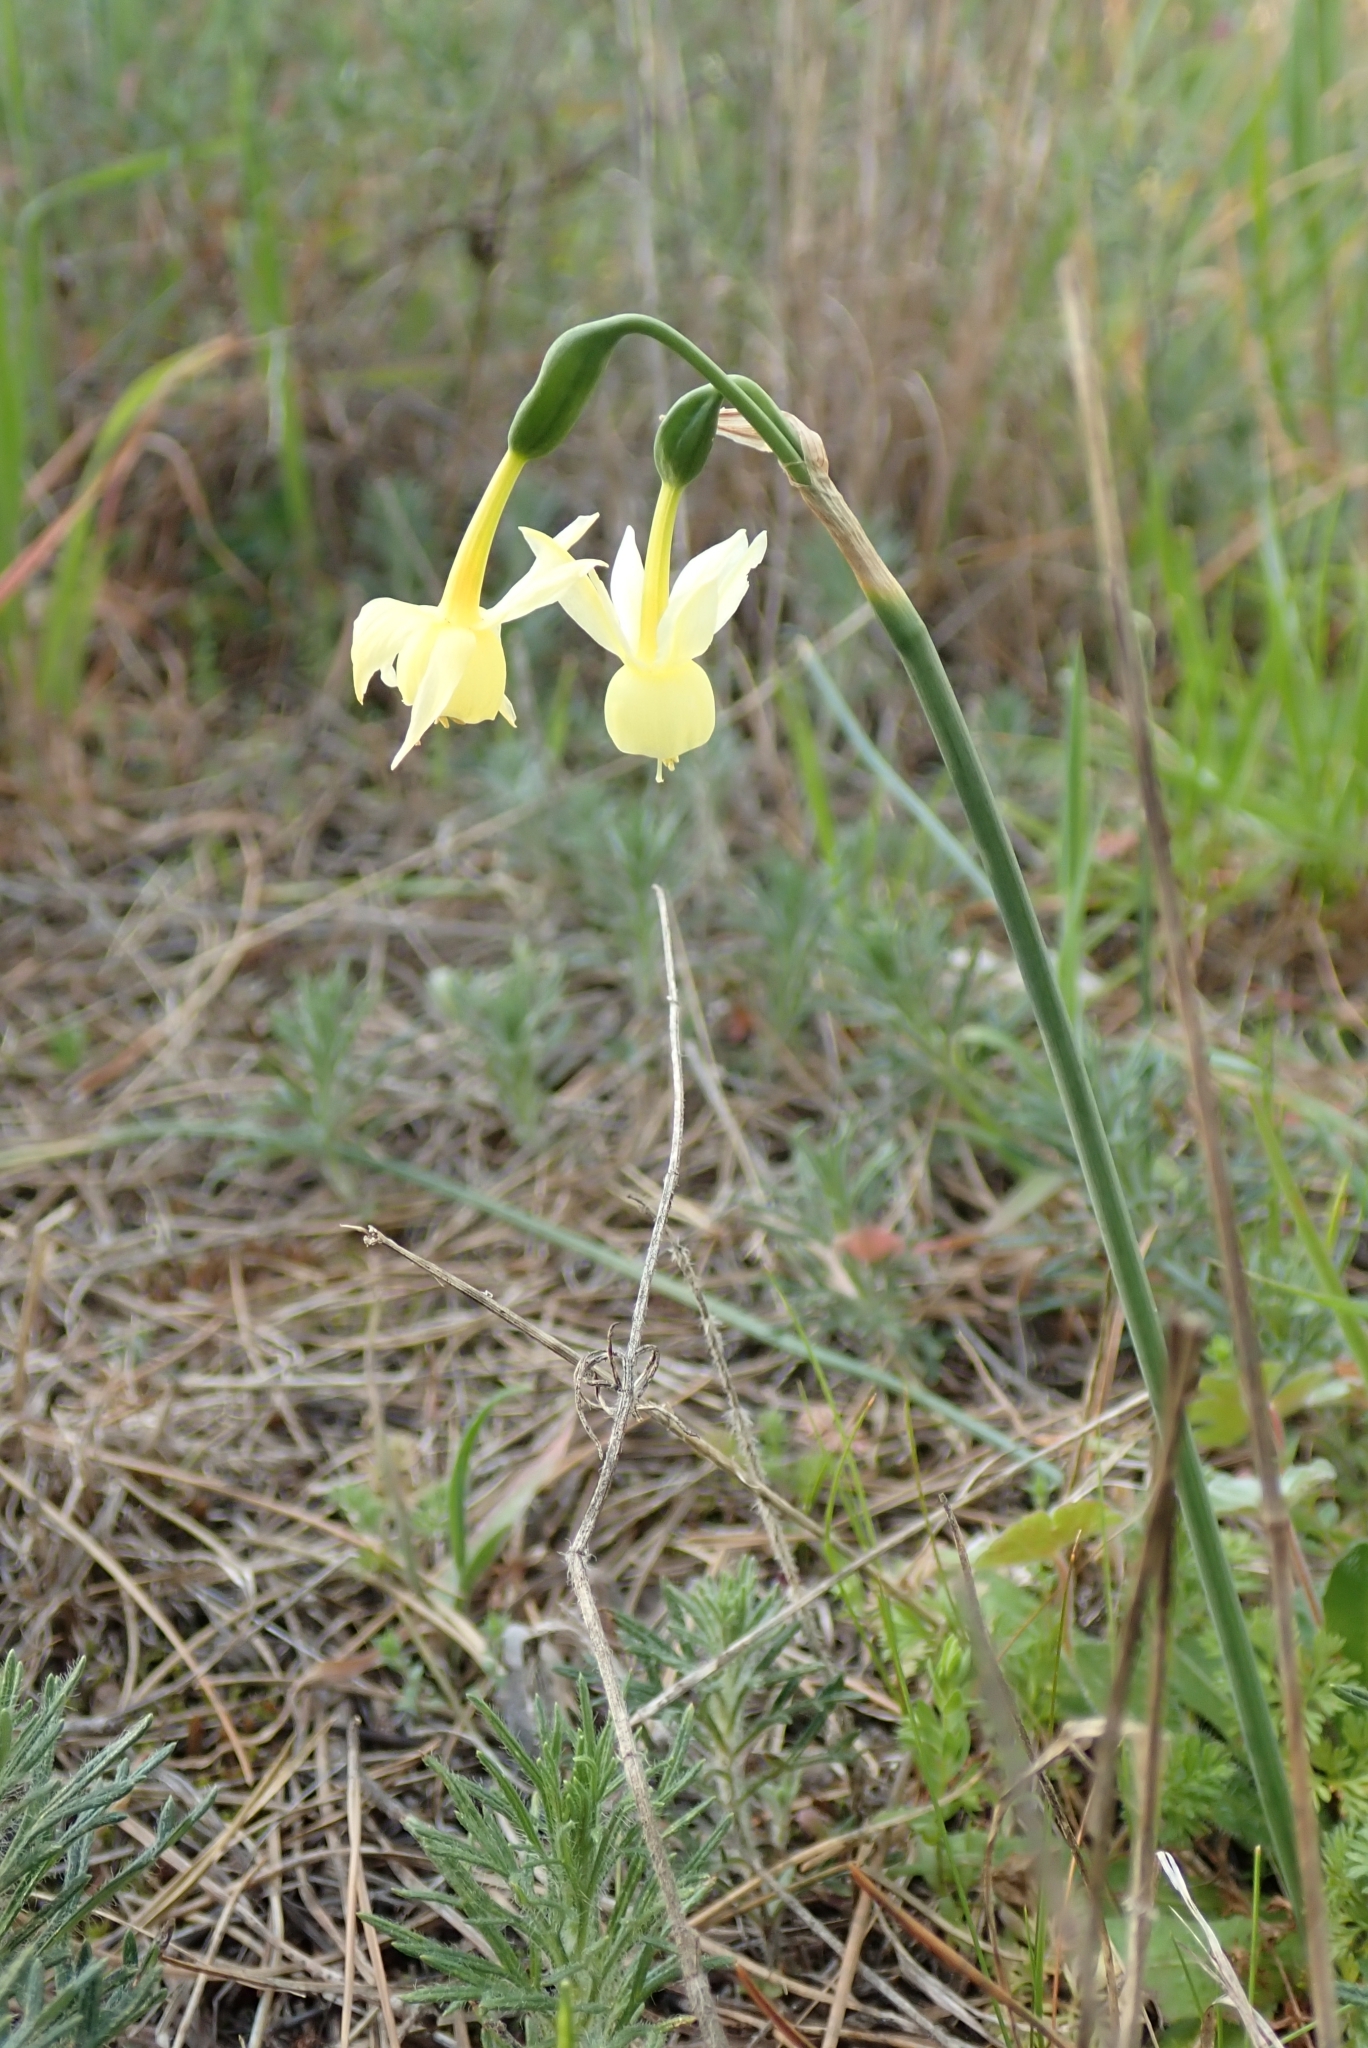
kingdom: Plantae
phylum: Tracheophyta
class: Liliopsida
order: Asparagales
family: Amaryllidaceae
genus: Narcissus
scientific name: Narcissus triandrus
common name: Angel's-tears
